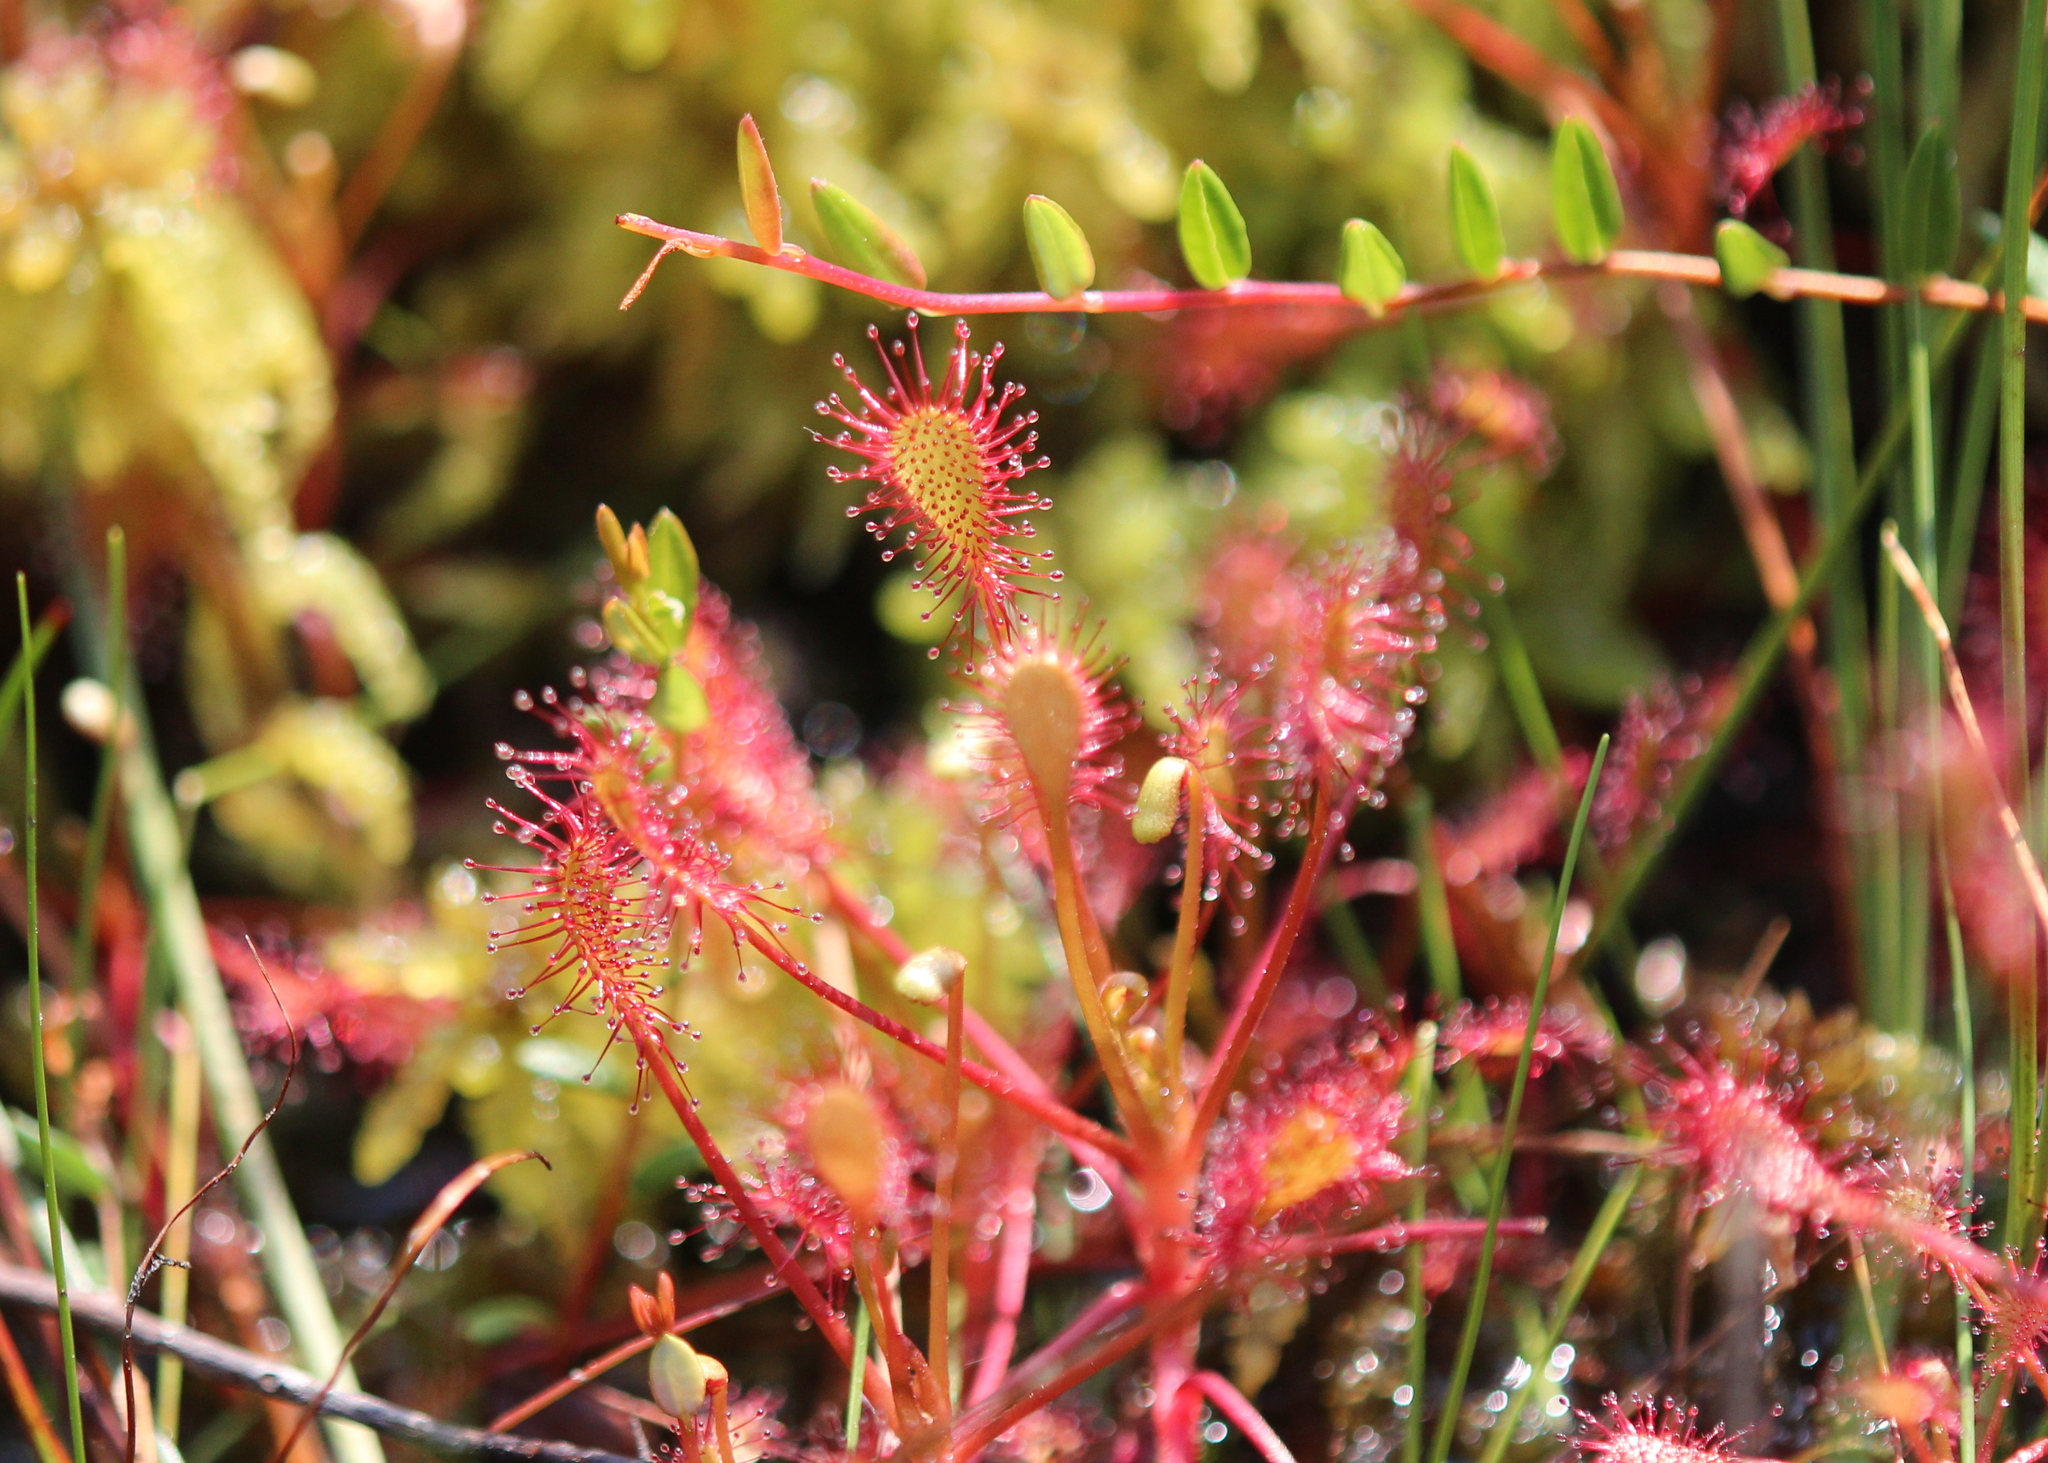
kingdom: Plantae
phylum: Tracheophyta
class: Magnoliopsida
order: Caryophyllales
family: Droseraceae
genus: Drosera
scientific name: Drosera intermedia
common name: Oblong-leaved sundew
